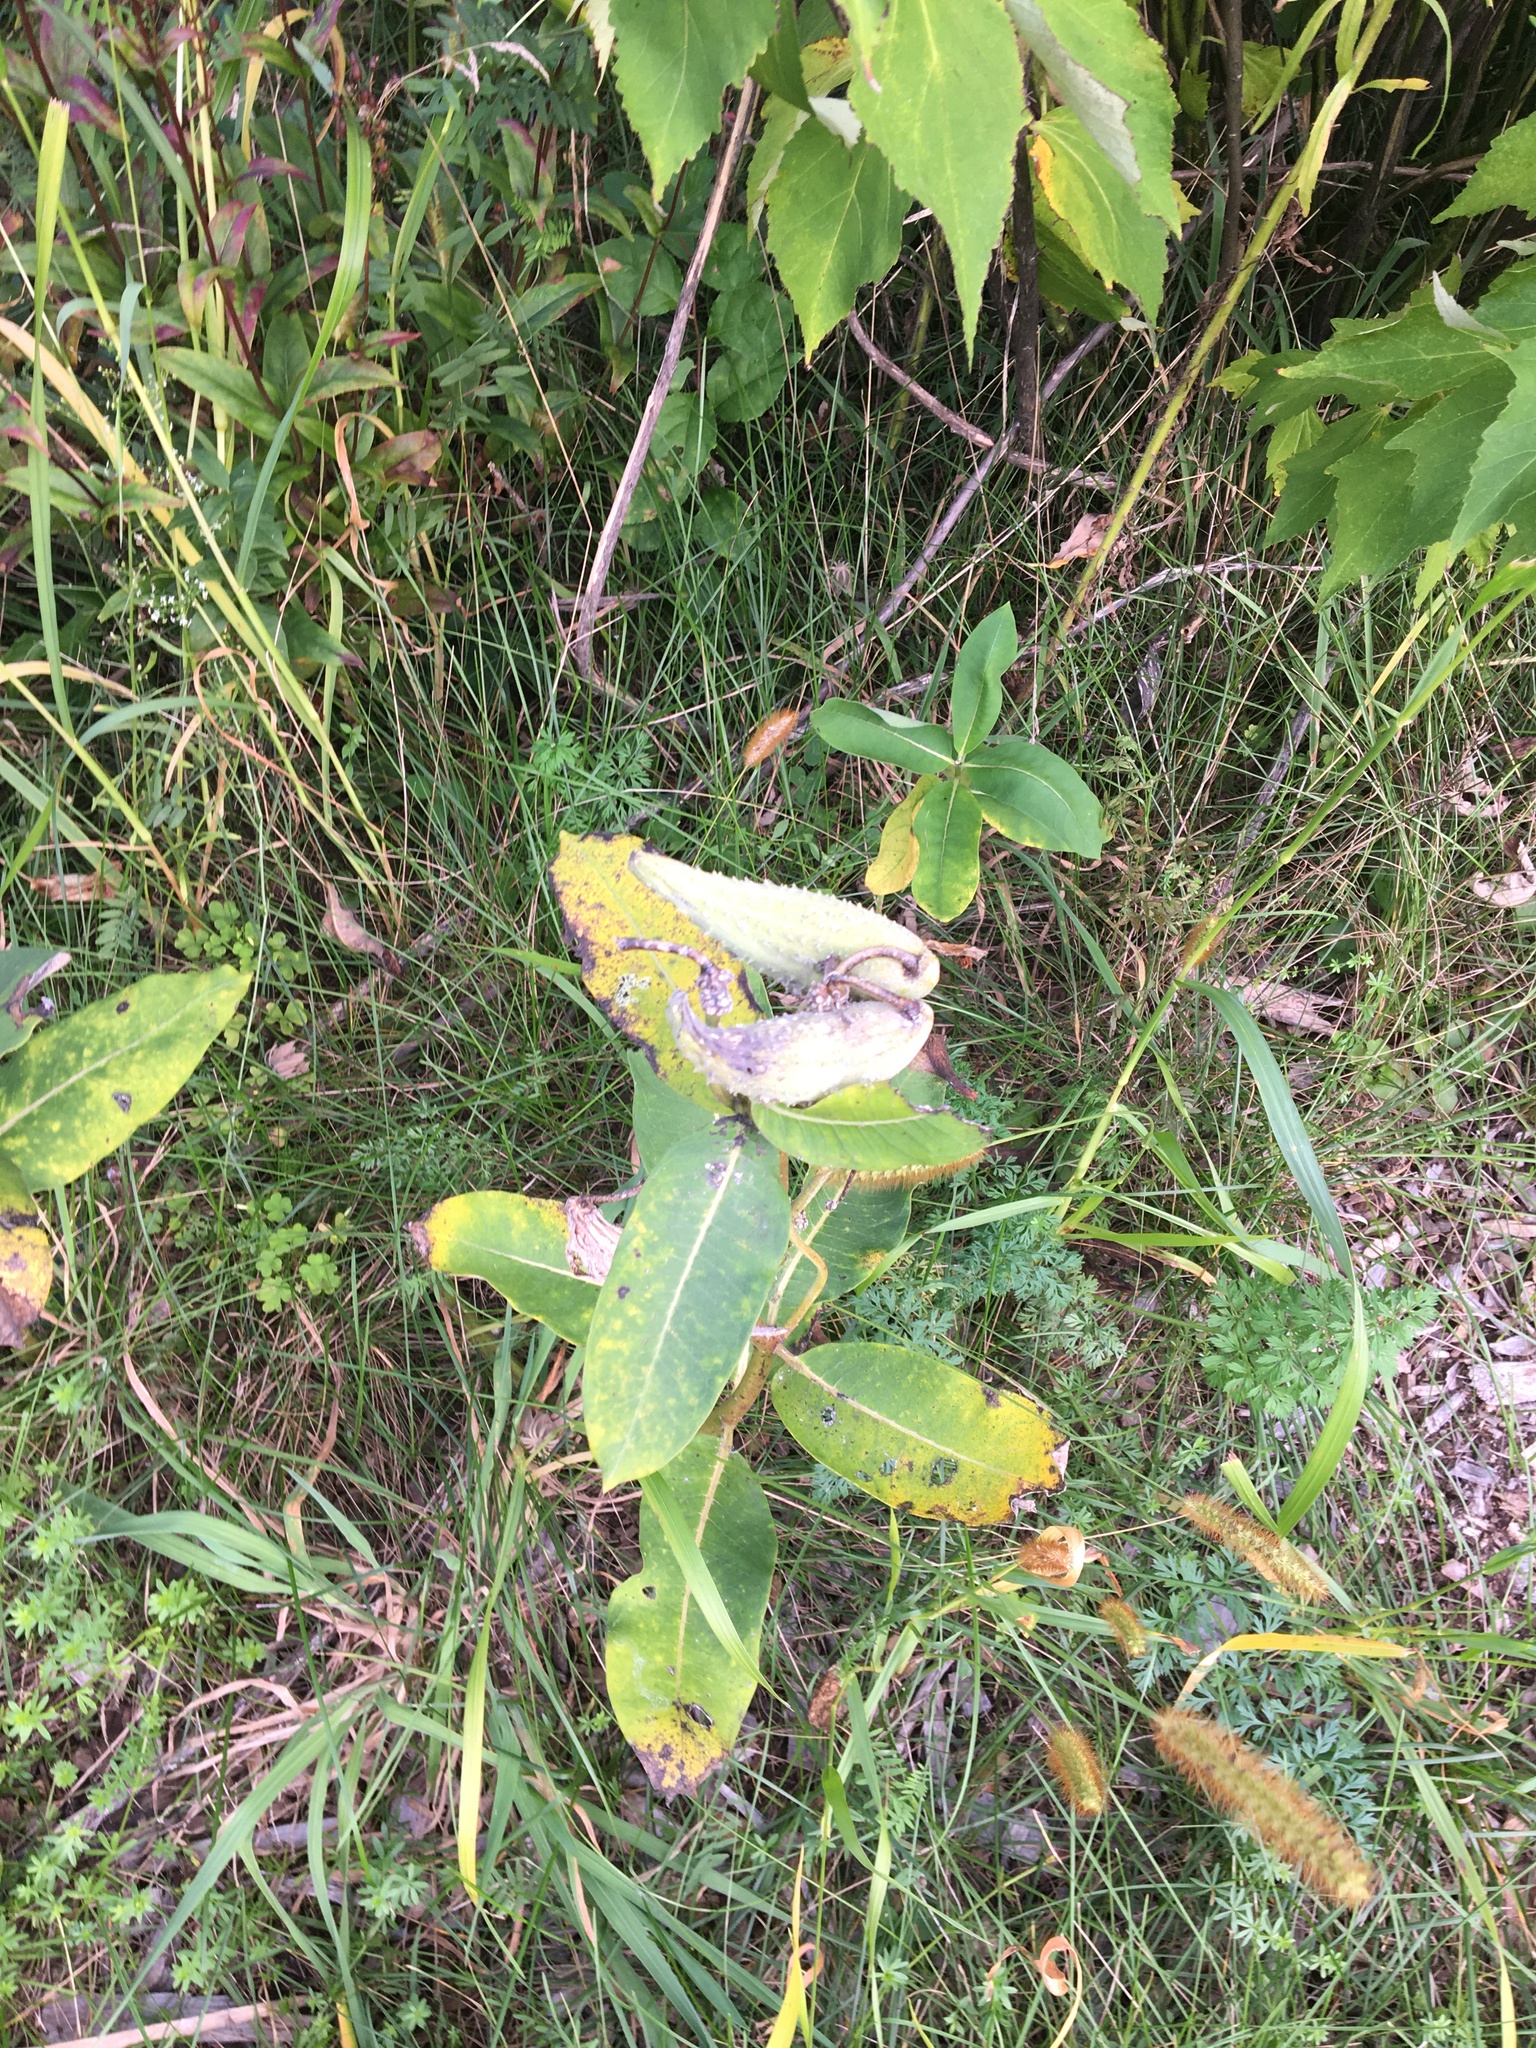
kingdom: Plantae
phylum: Tracheophyta
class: Magnoliopsida
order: Gentianales
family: Apocynaceae
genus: Asclepias
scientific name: Asclepias syriaca
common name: Common milkweed
